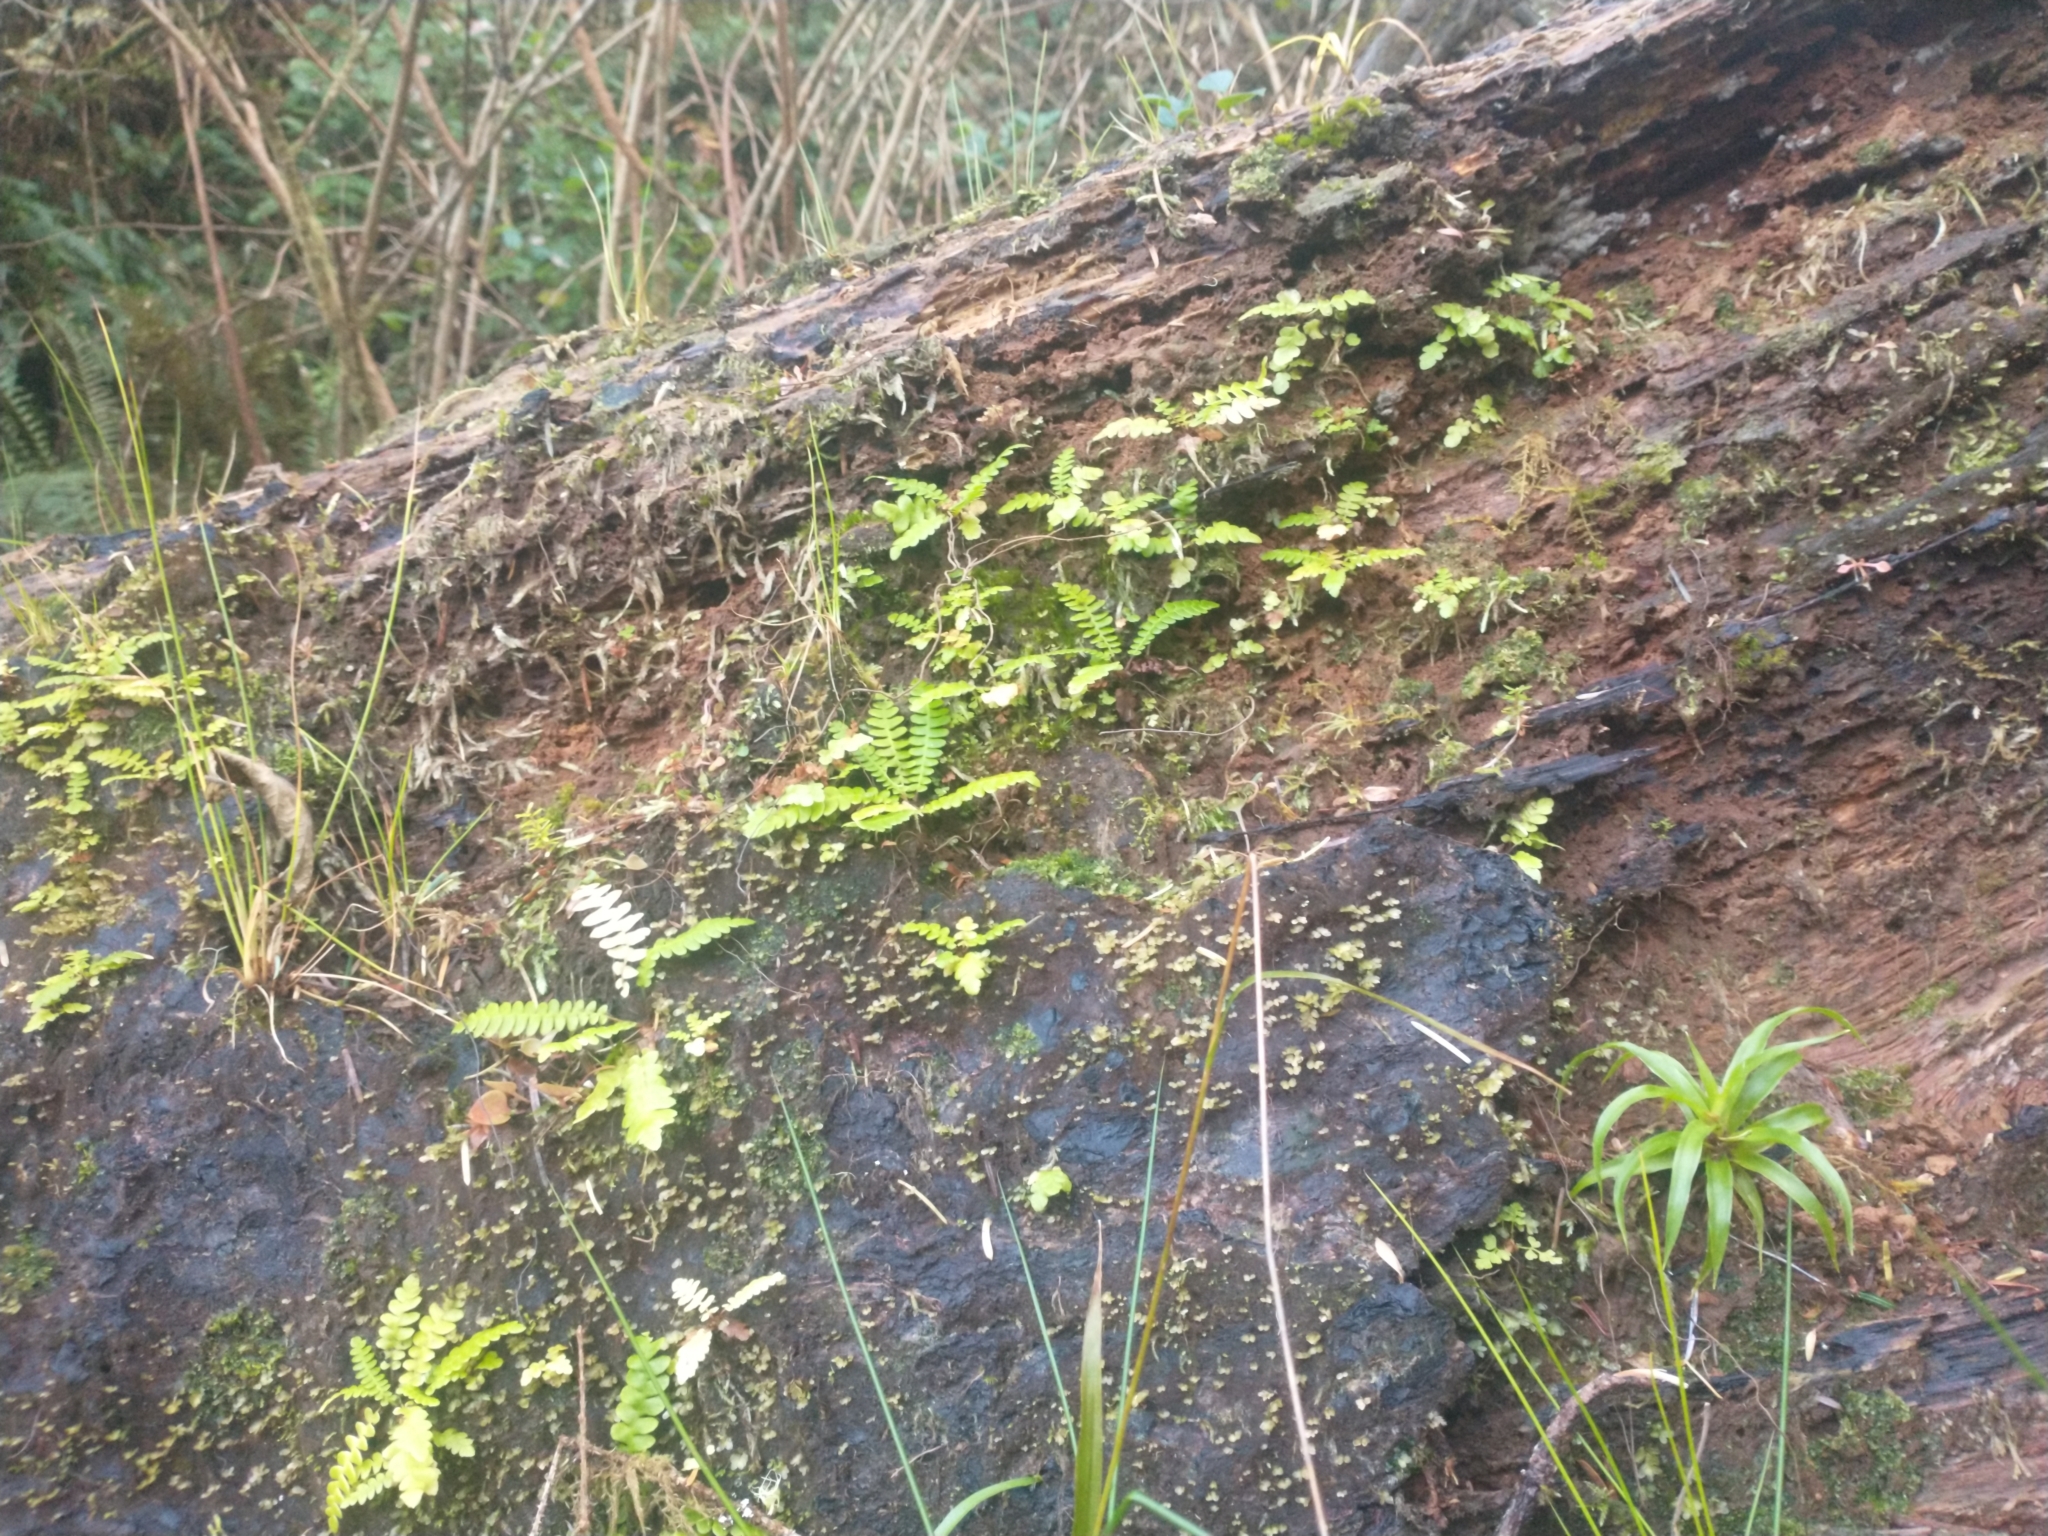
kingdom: Plantae
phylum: Tracheophyta
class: Polypodiopsida
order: Polypodiales
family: Blechnaceae
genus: Struthiopteris
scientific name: Struthiopteris spicant
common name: Deer fern
